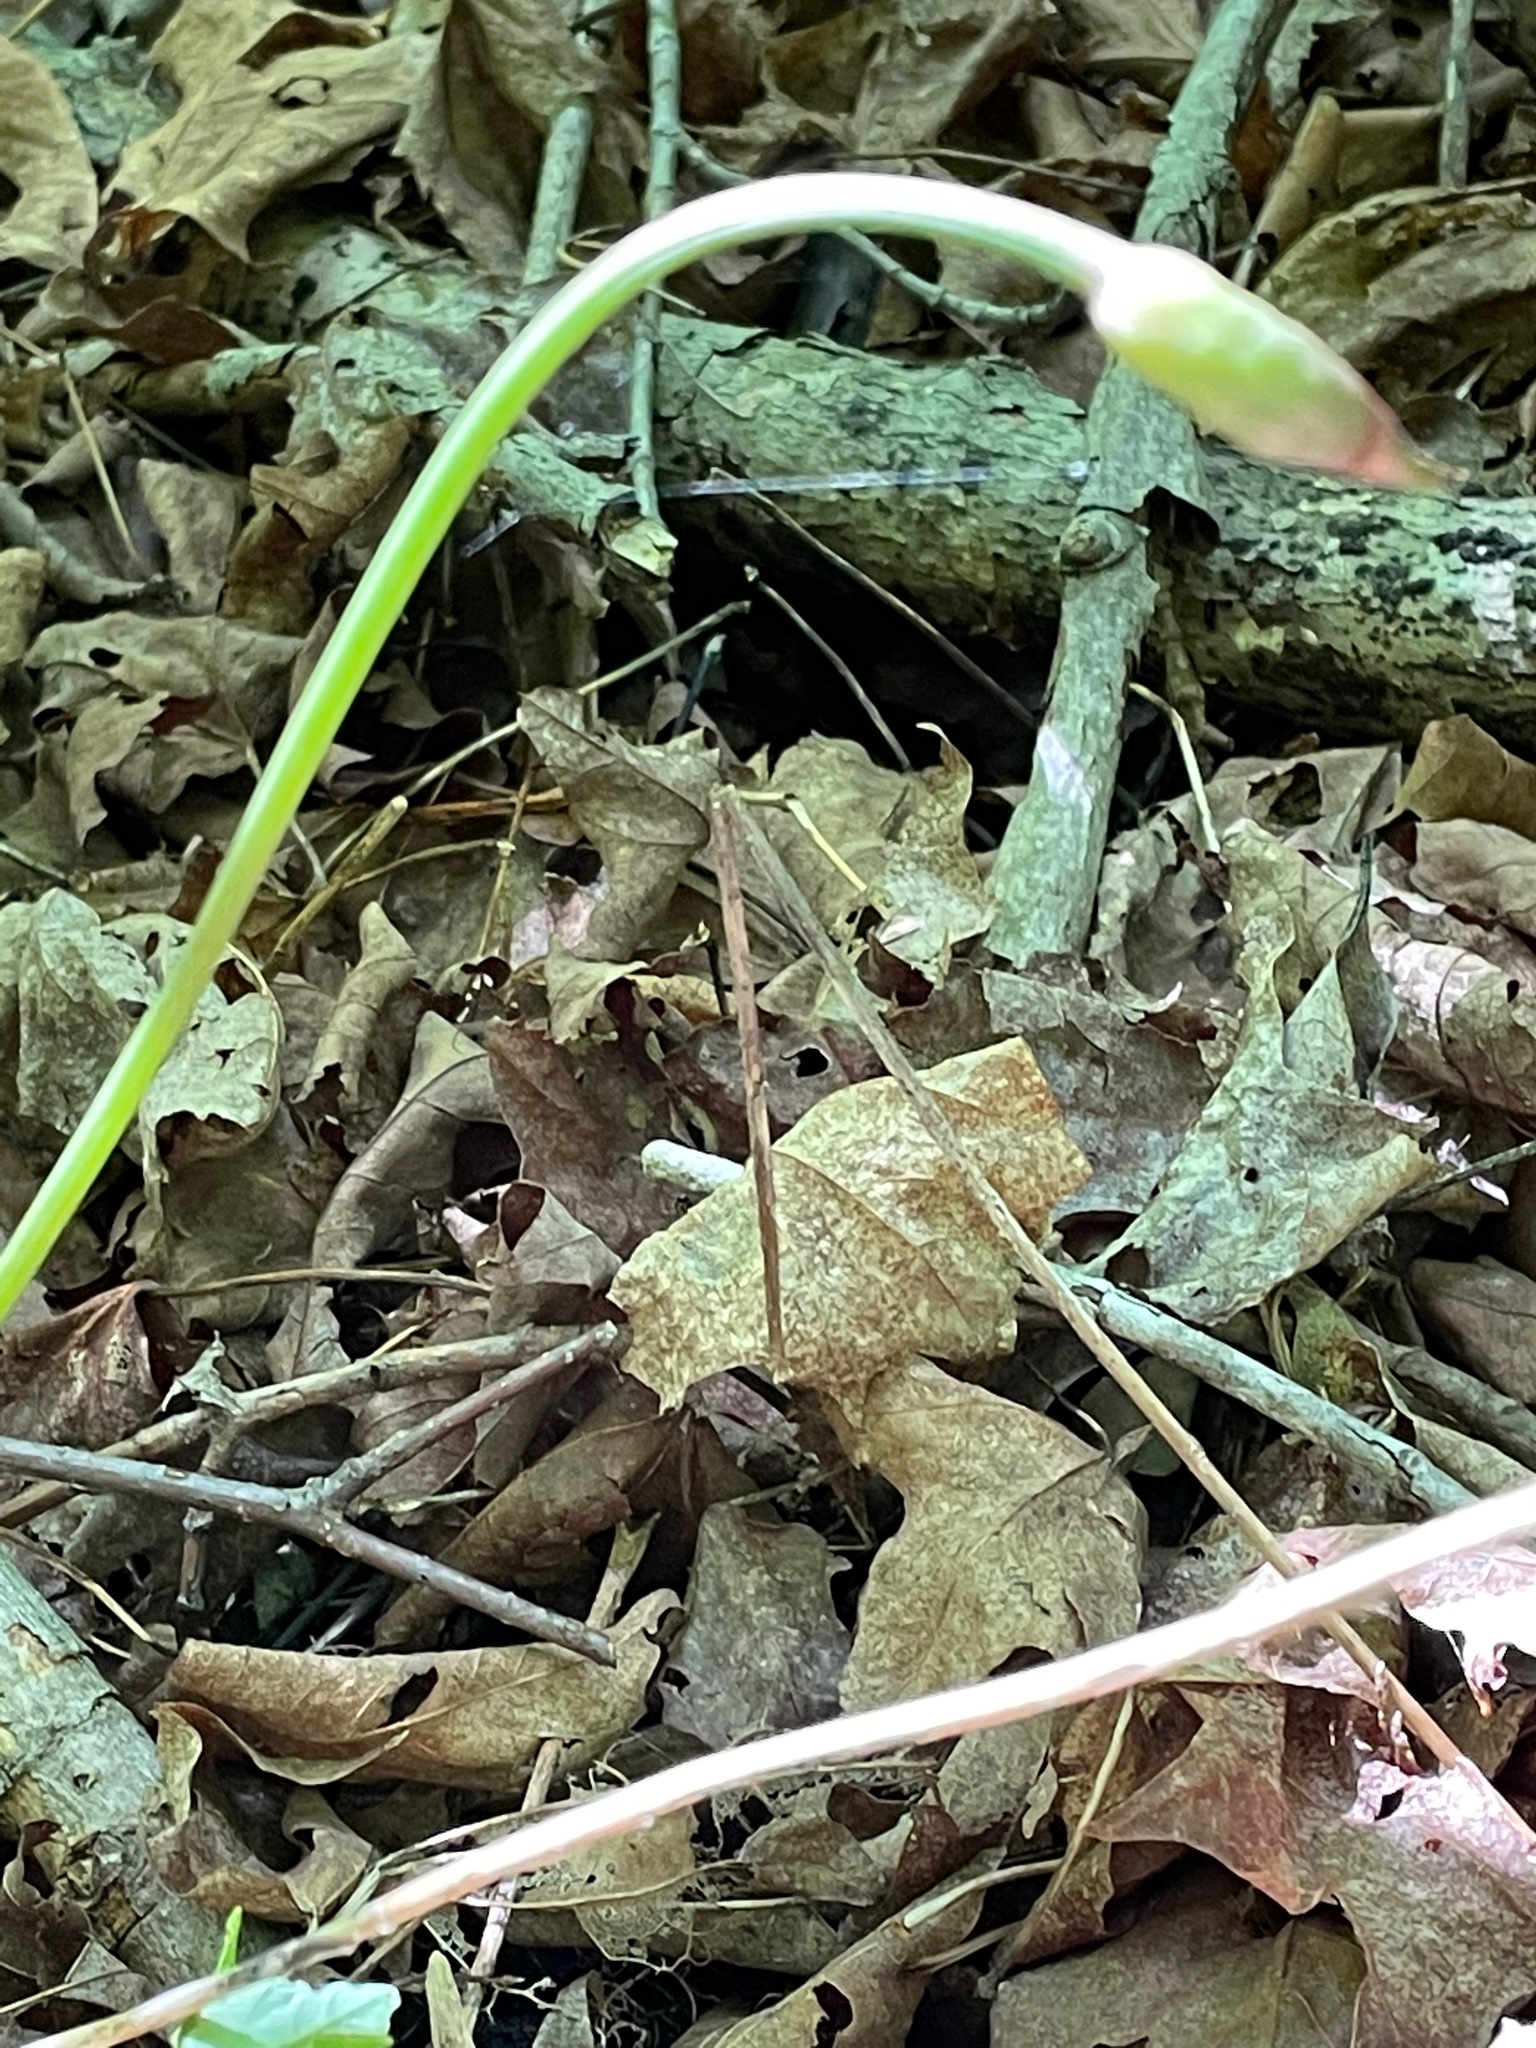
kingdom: Plantae
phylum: Tracheophyta
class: Liliopsida
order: Asparagales
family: Amaryllidaceae
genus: Allium
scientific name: Allium tricoccum
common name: Ramp
